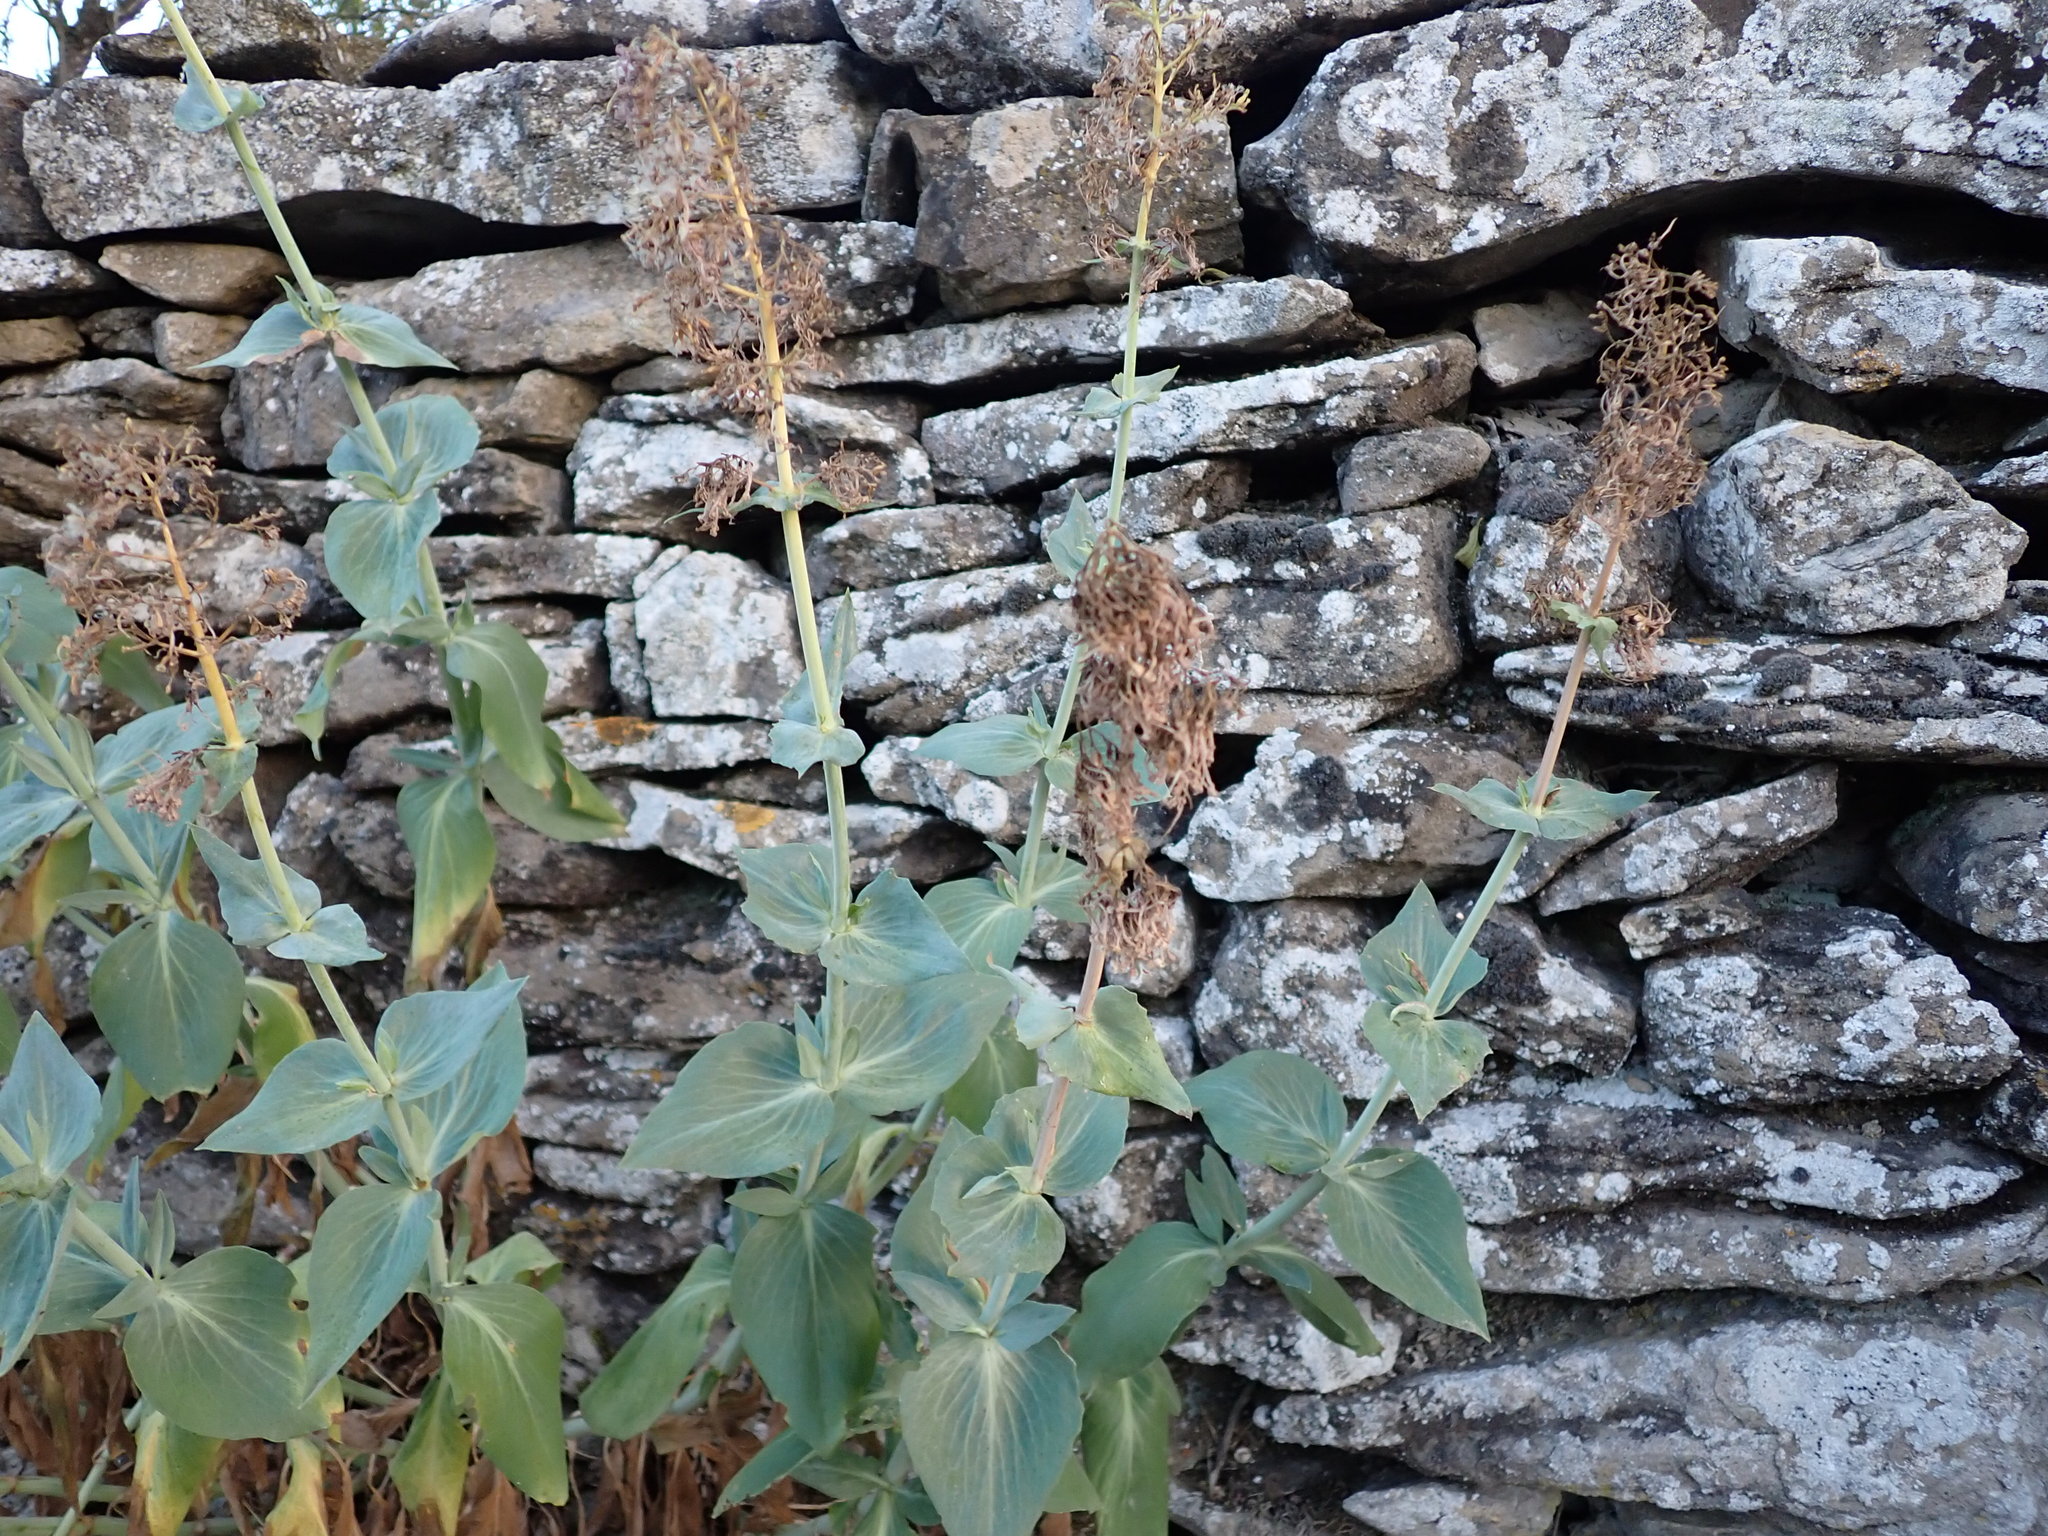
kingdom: Plantae
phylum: Tracheophyta
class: Magnoliopsida
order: Dipsacales
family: Caprifoliaceae
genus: Centranthus
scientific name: Centranthus ruber
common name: Red valerian
